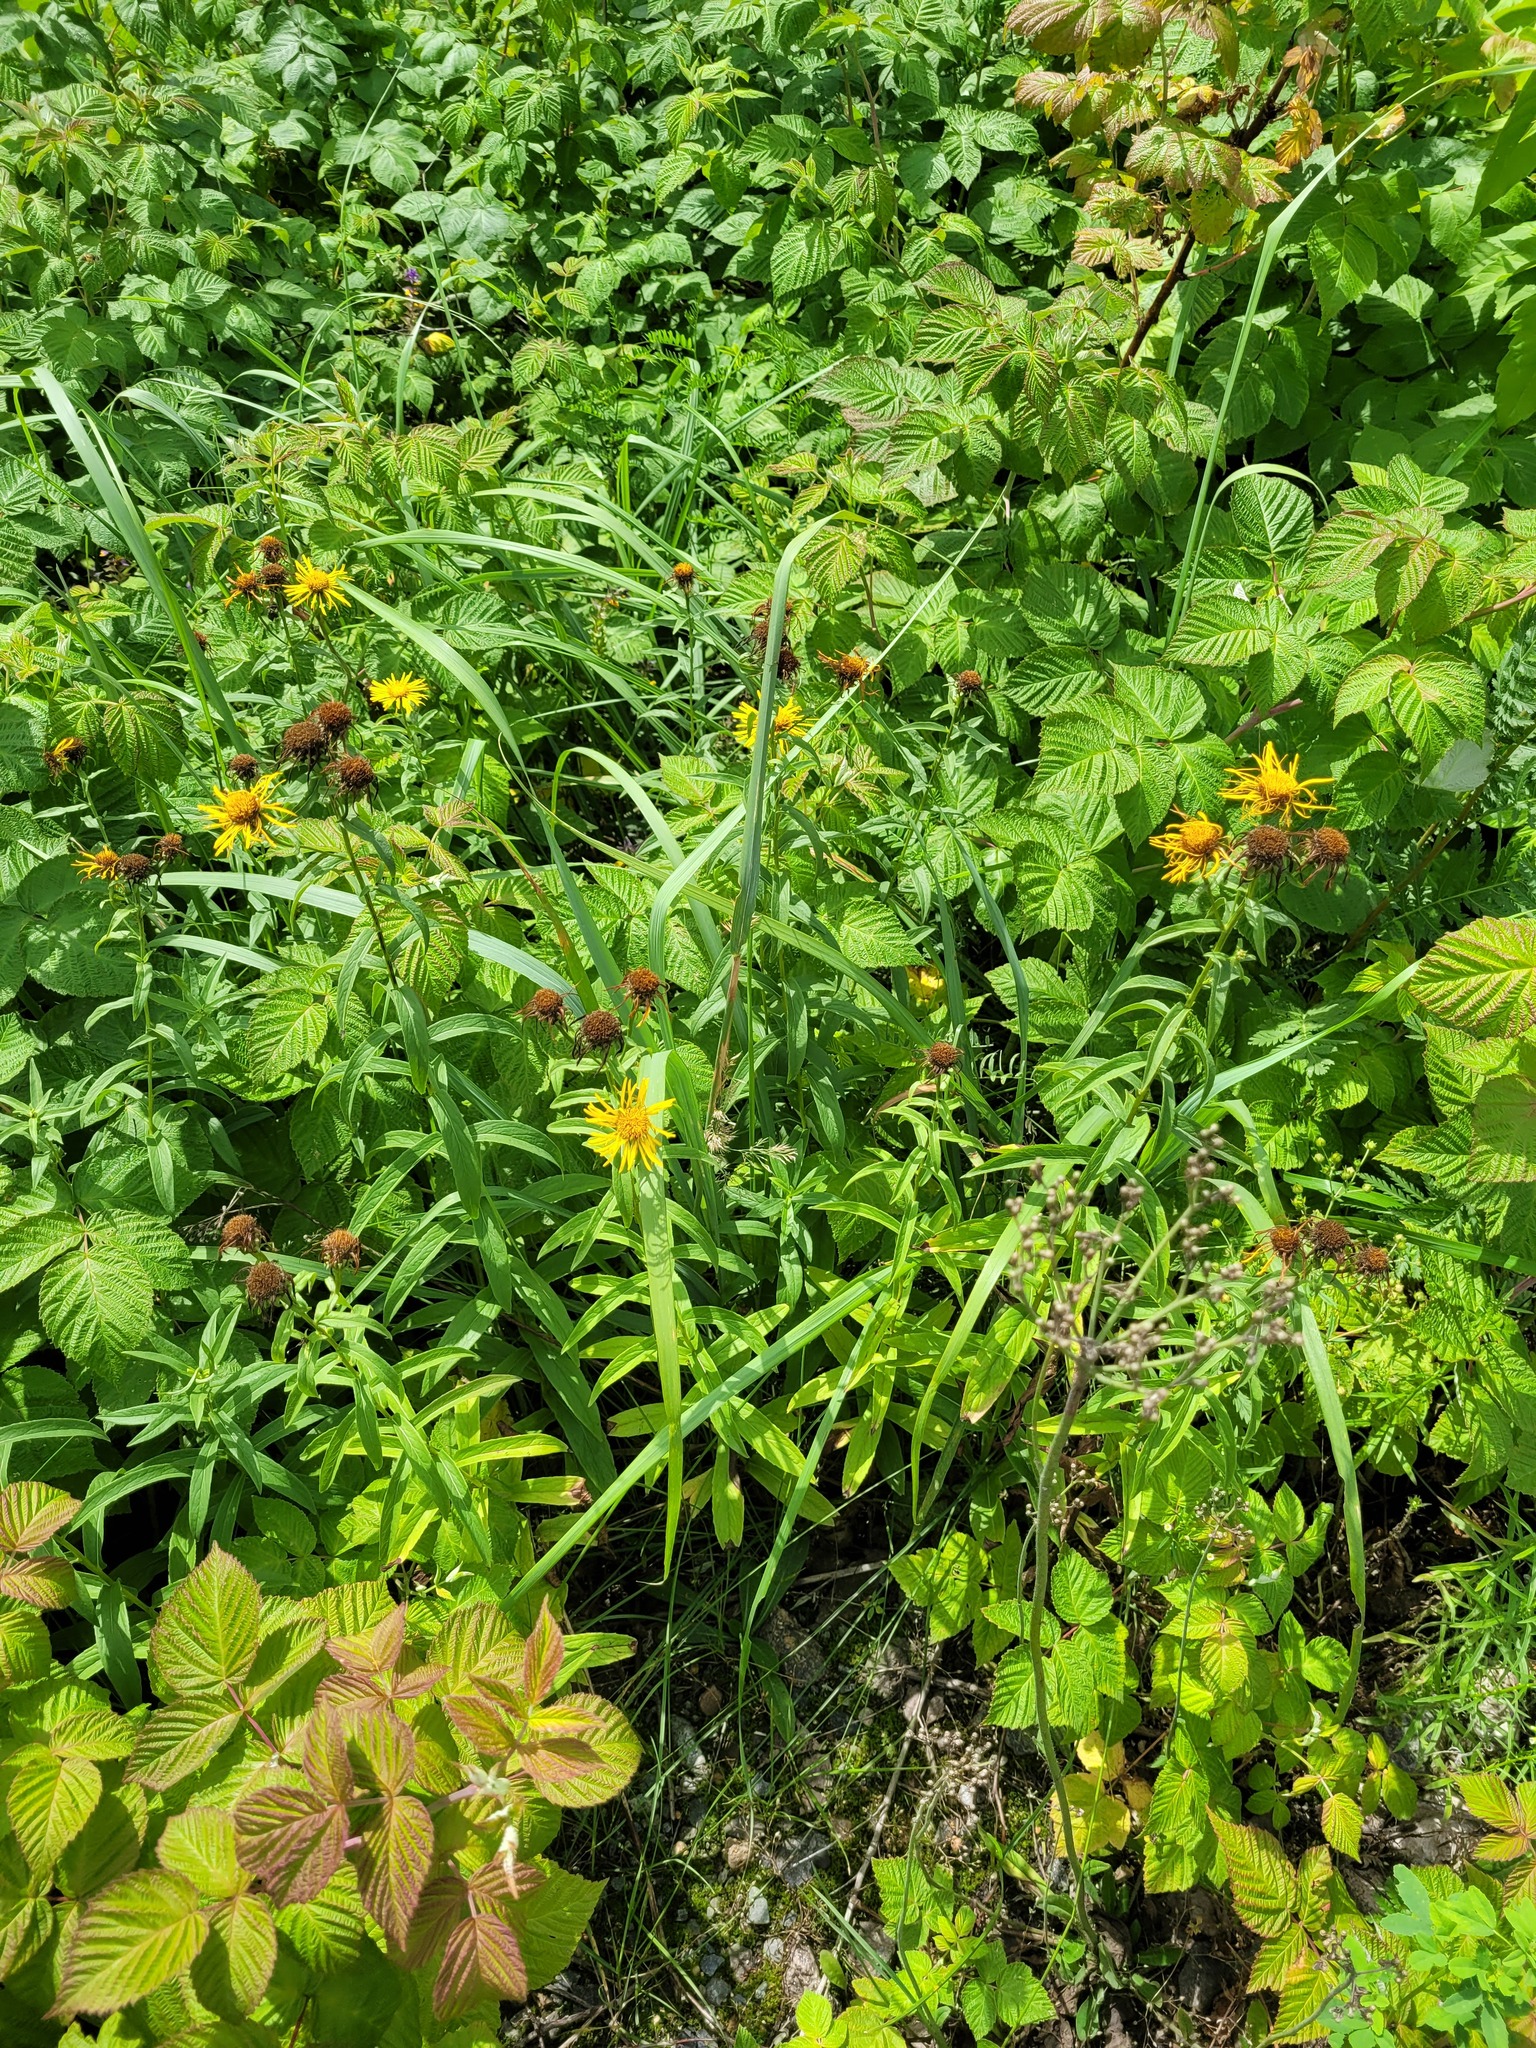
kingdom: Plantae
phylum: Tracheophyta
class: Magnoliopsida
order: Asterales
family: Asteraceae
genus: Pentanema
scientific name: Pentanema salicinum
